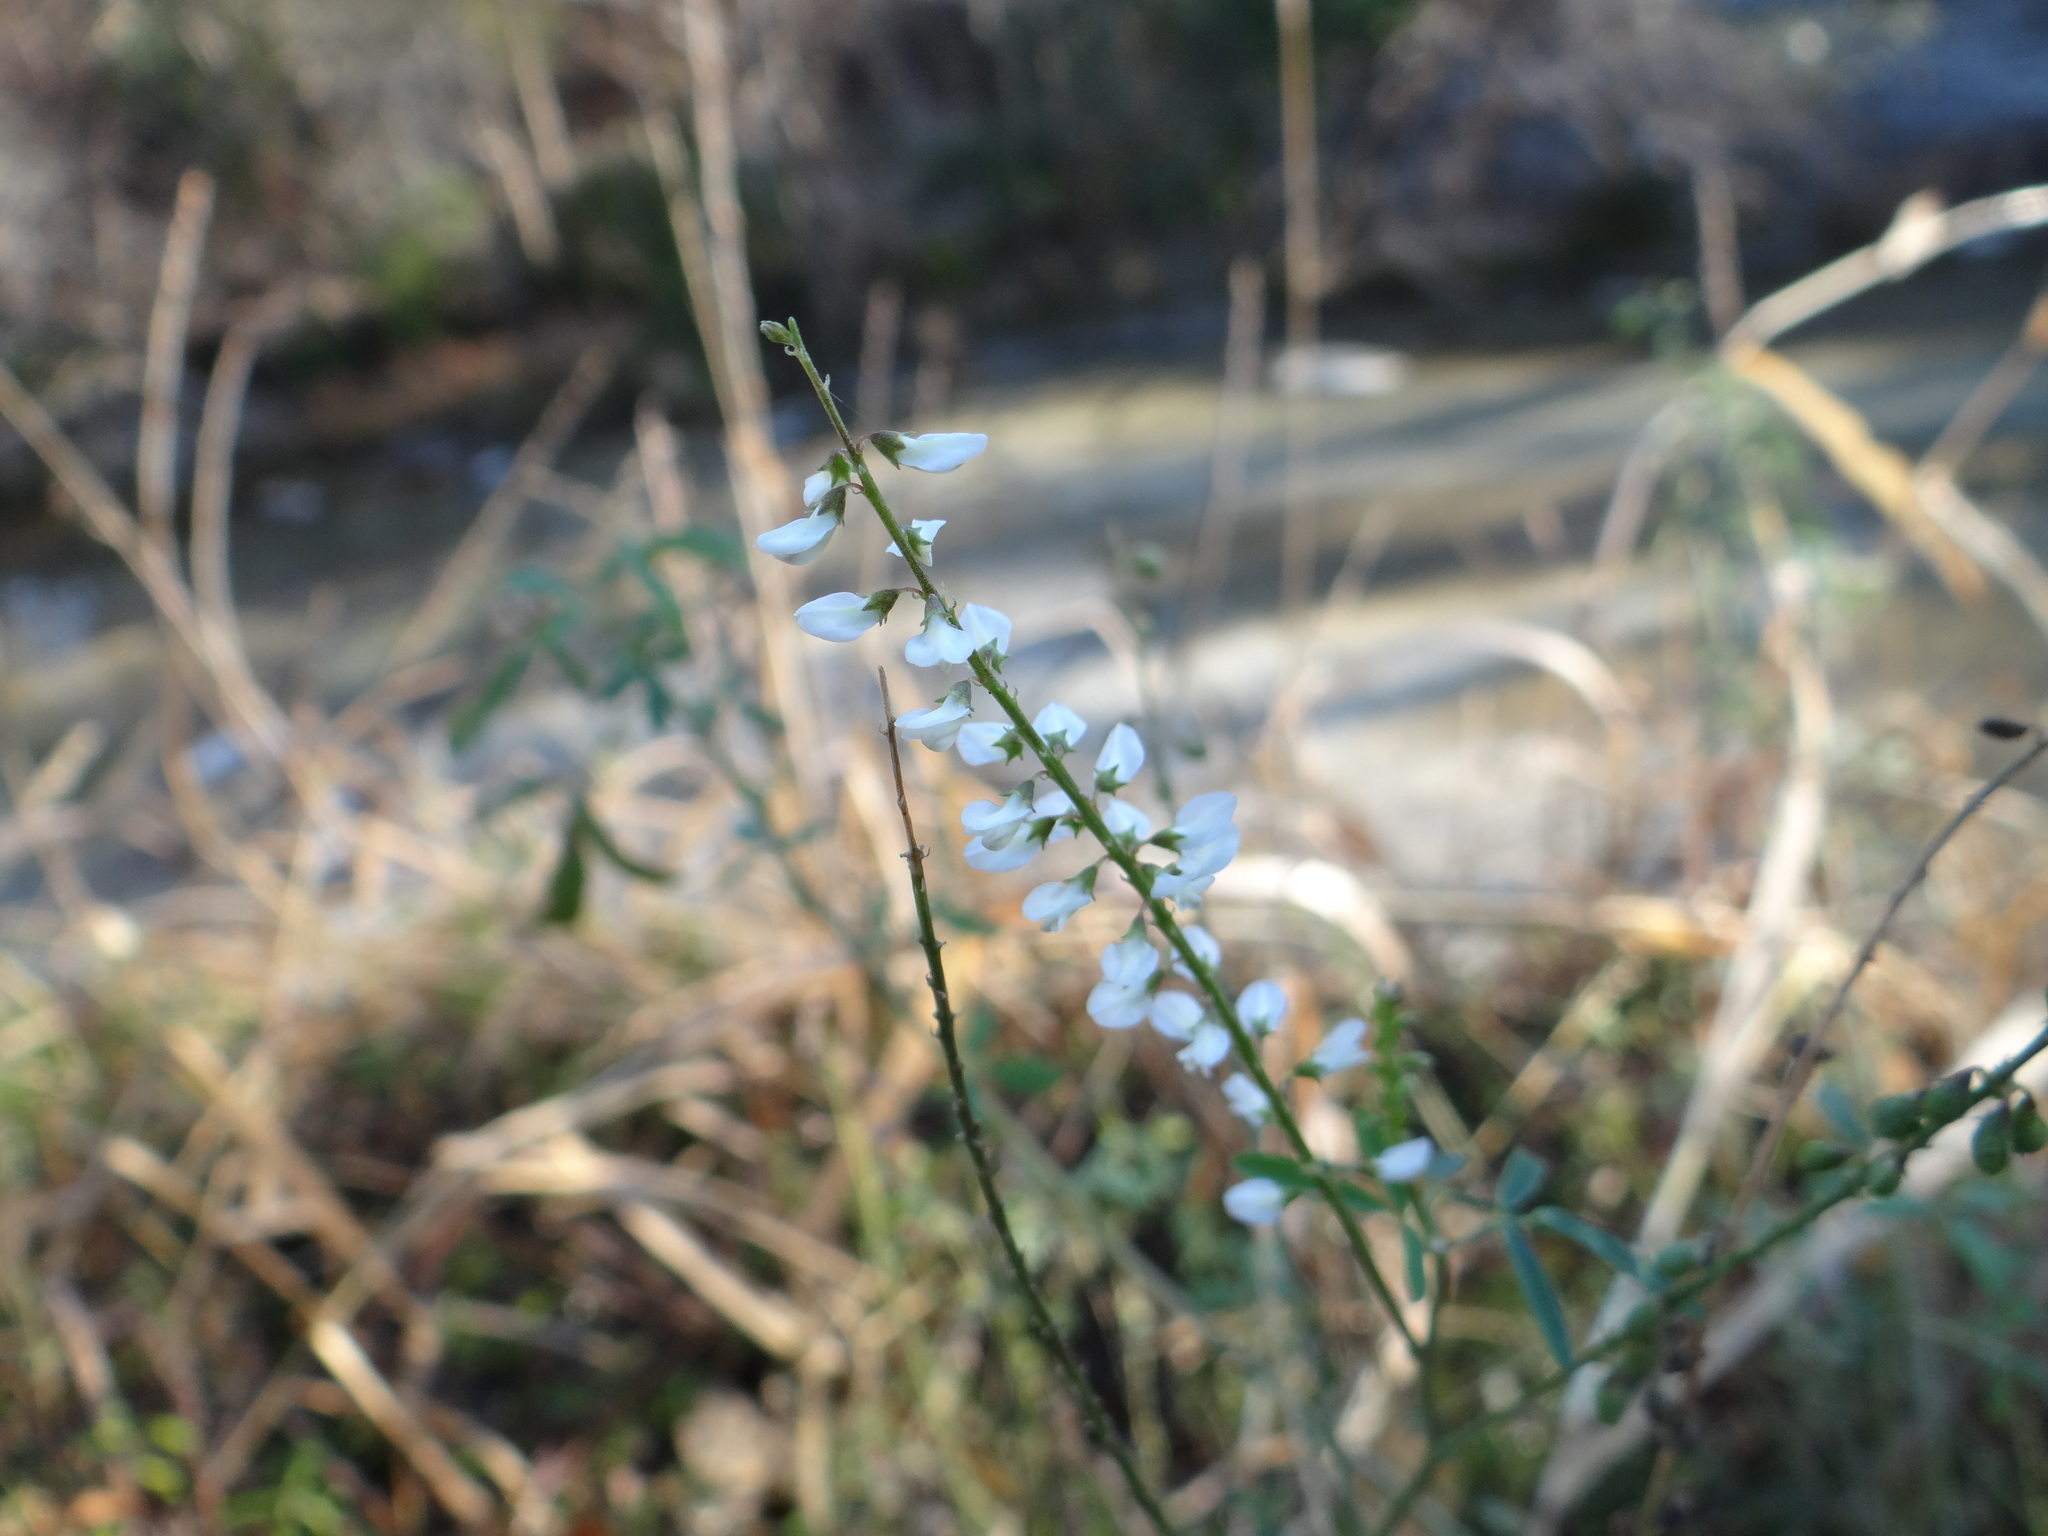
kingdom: Plantae
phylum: Tracheophyta
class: Magnoliopsida
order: Fabales
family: Fabaceae
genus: Melilotus
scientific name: Melilotus albus
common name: White melilot
